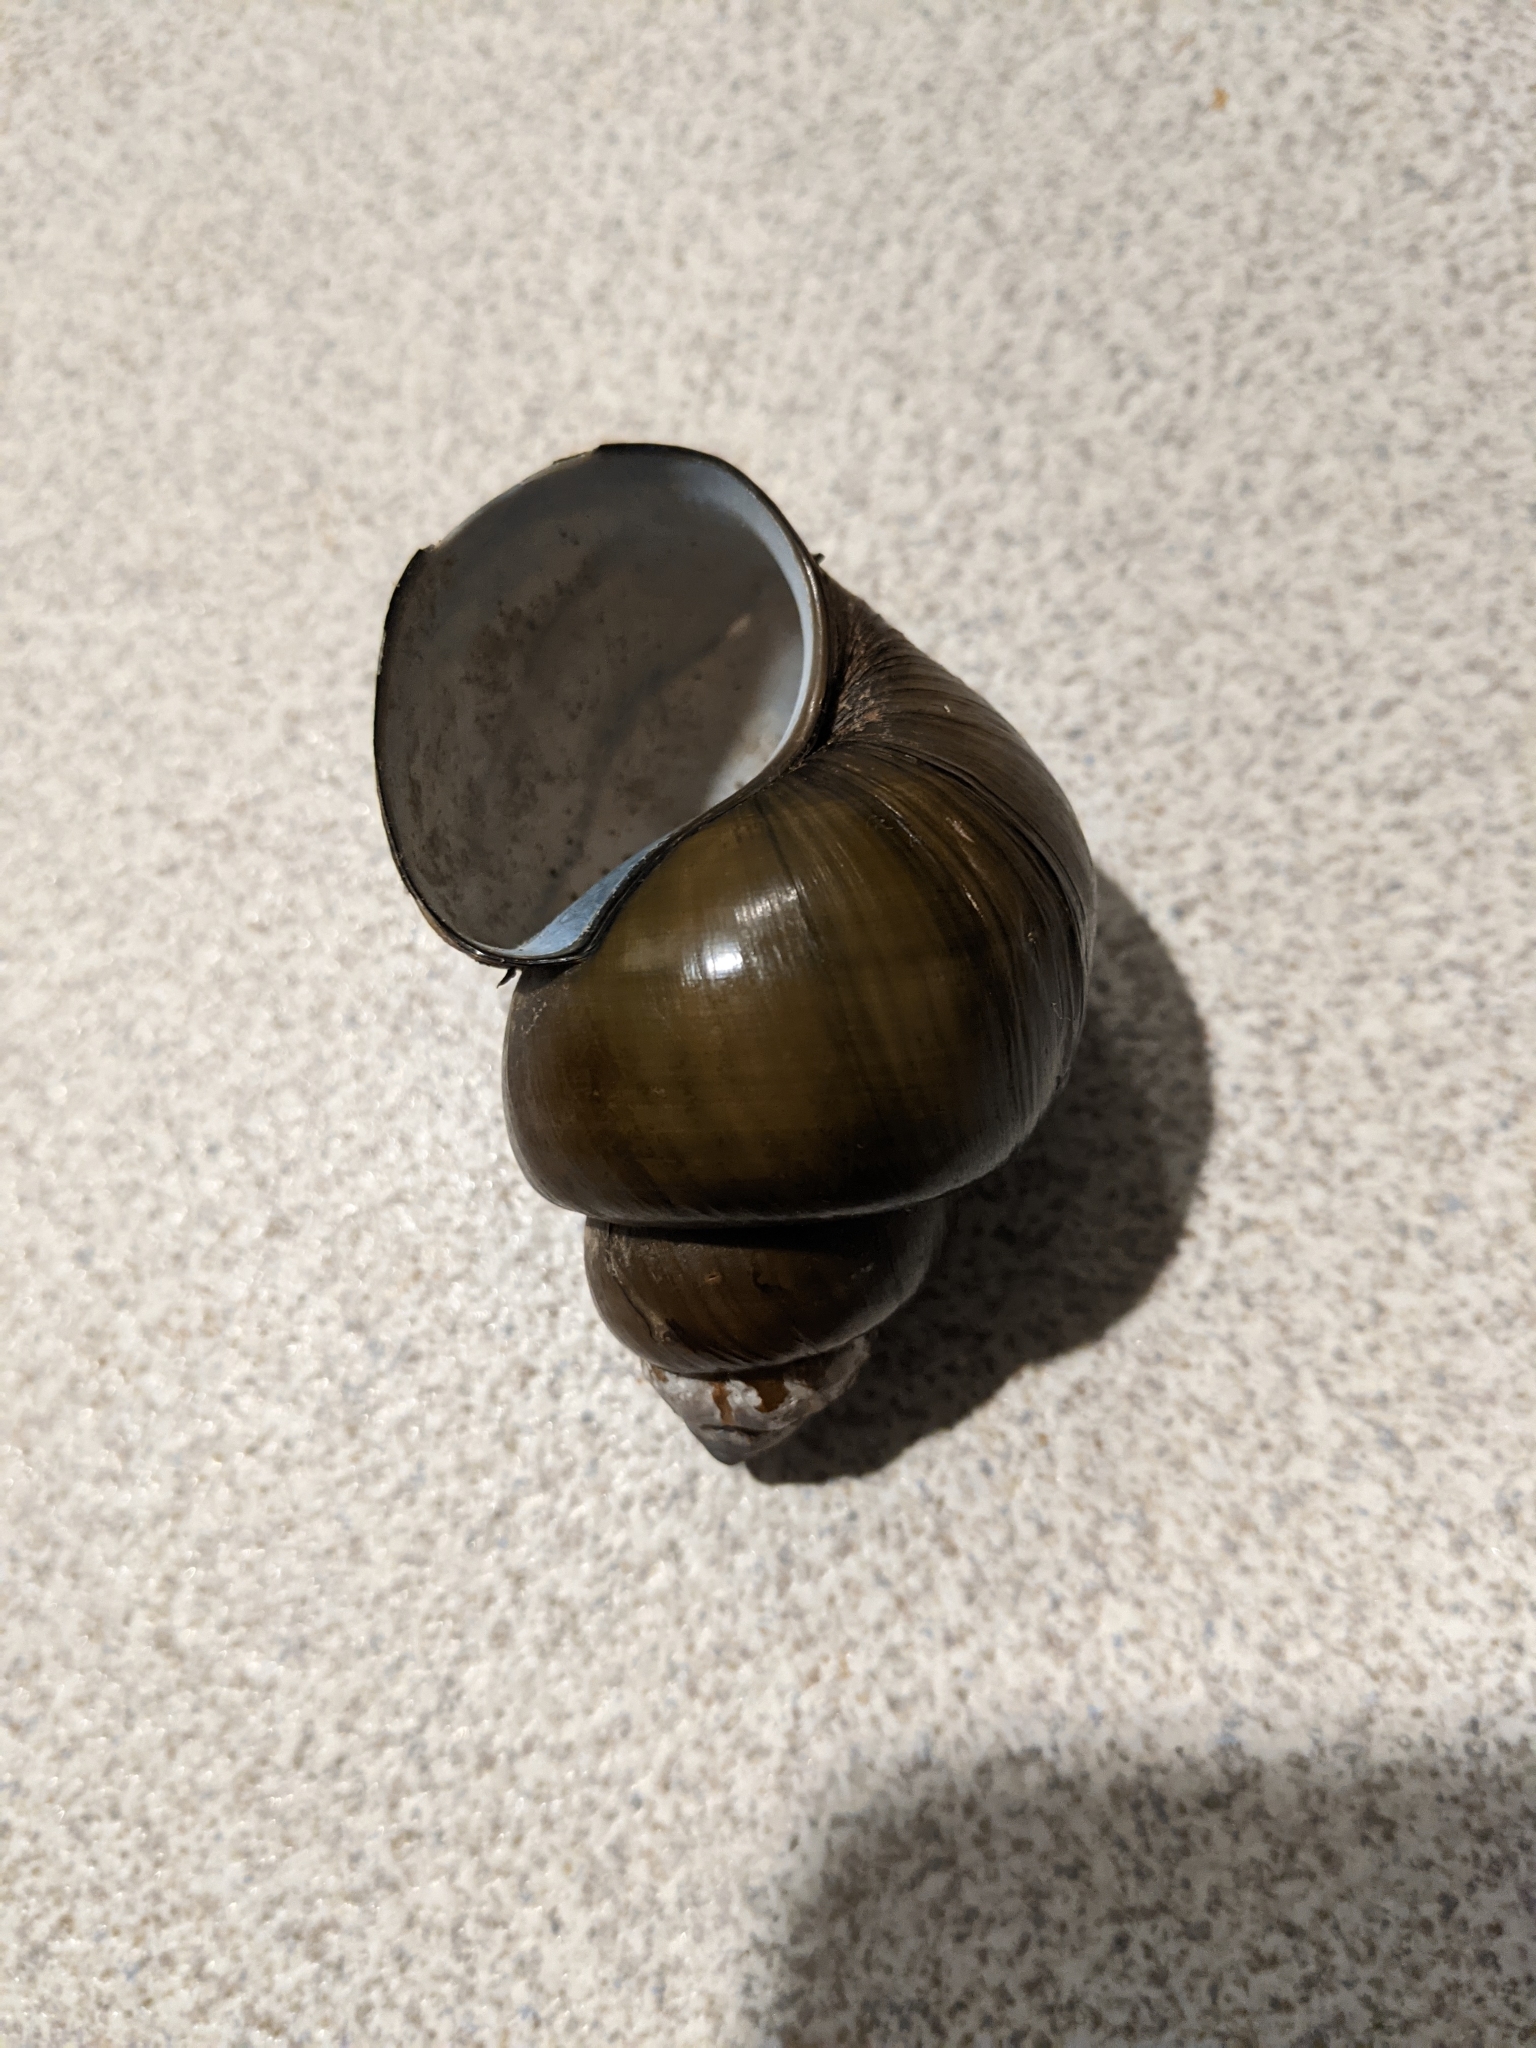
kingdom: Animalia
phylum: Mollusca
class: Gastropoda
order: Architaenioglossa
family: Viviparidae
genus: Cipangopaludina
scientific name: Cipangopaludina chinensis
